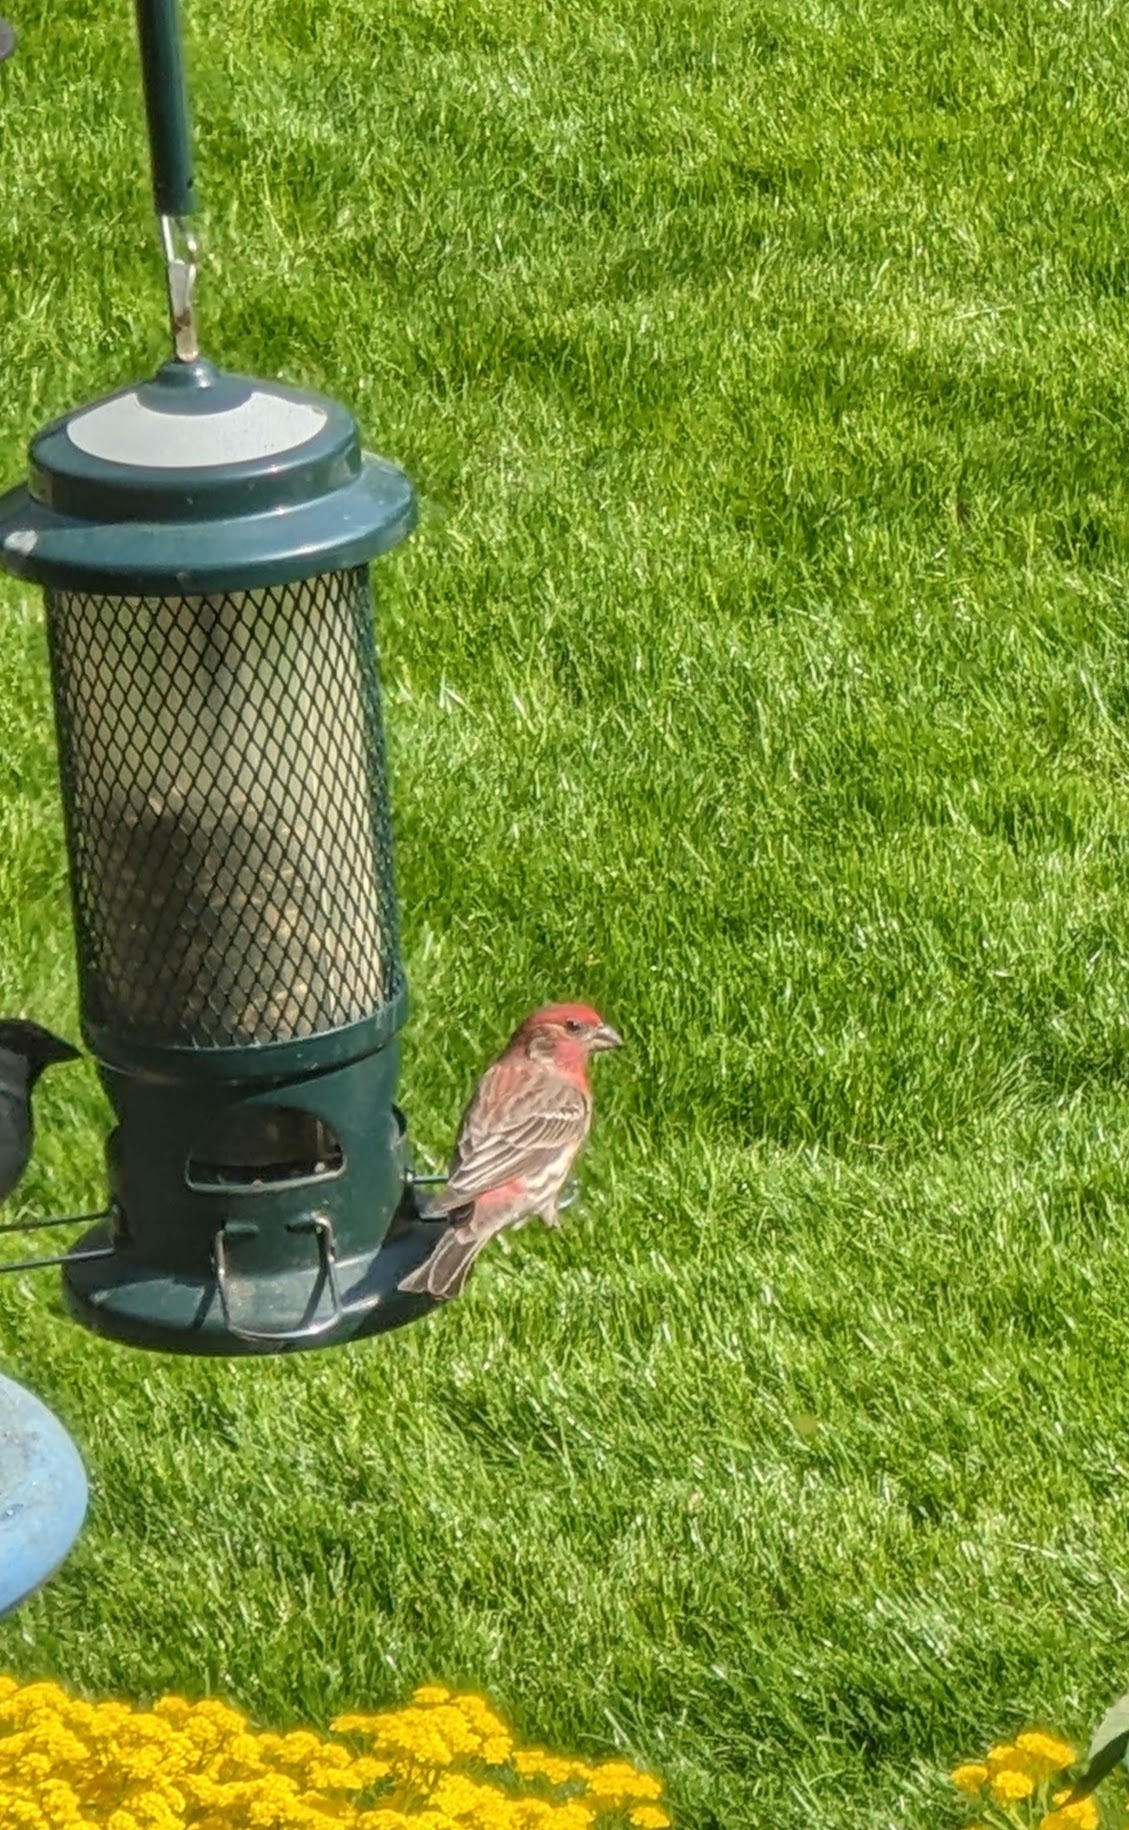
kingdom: Animalia
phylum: Chordata
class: Aves
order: Passeriformes
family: Fringillidae
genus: Haemorhous
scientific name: Haemorhous mexicanus
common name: House finch
